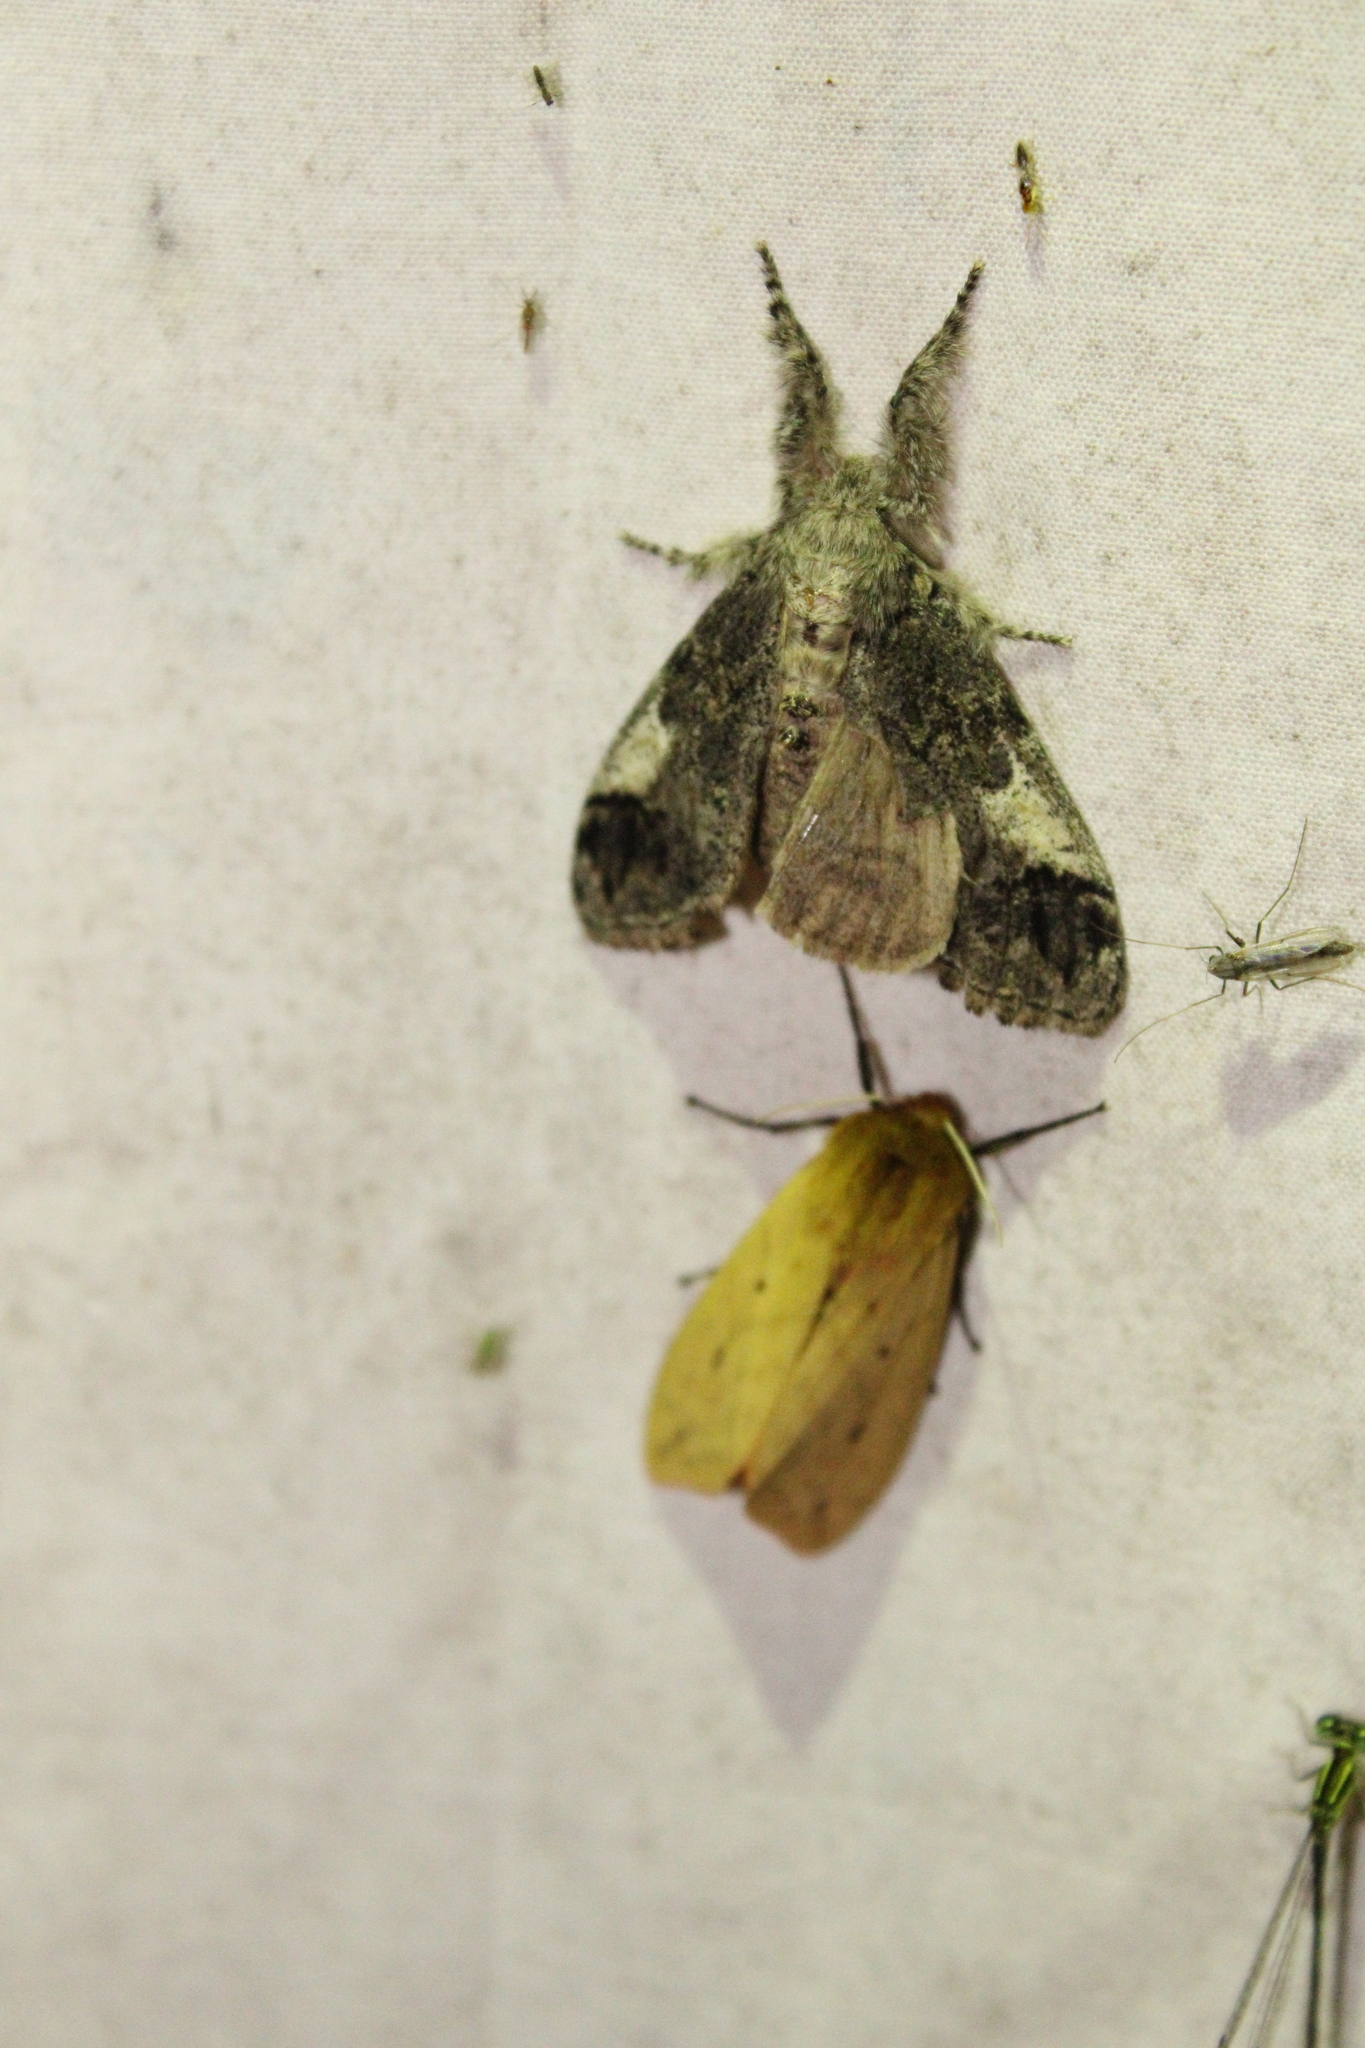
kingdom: Animalia
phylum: Arthropoda
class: Insecta
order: Lepidoptera
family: Erebidae
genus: Pyrrharctia
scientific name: Pyrrharctia isabella
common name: Isabella tiger moth
